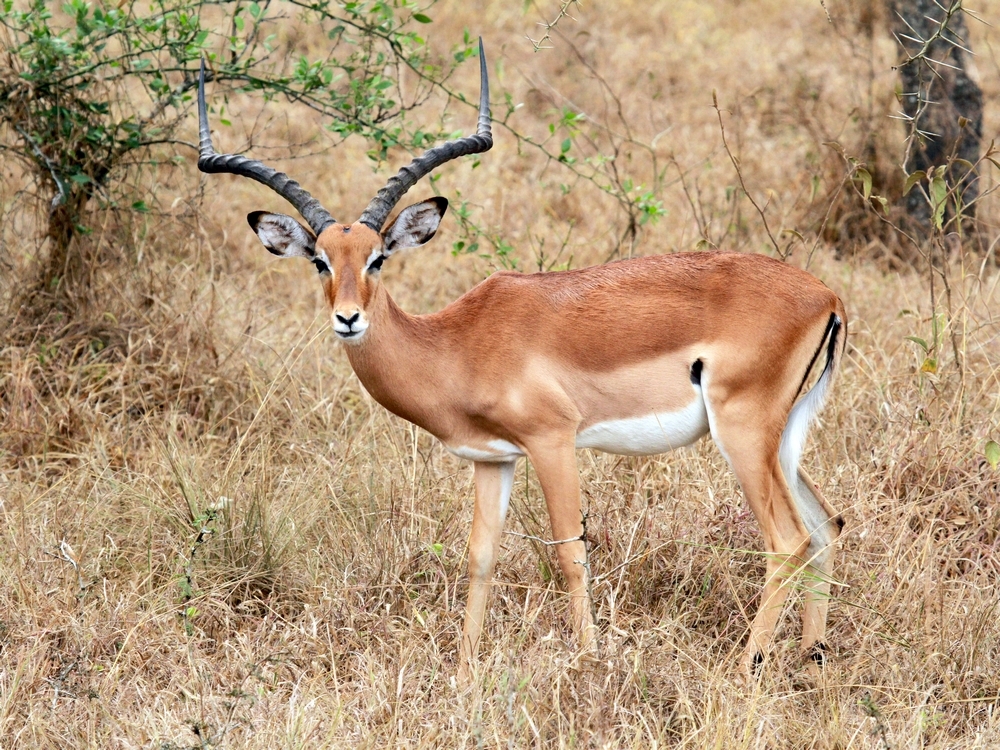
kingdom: Animalia
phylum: Chordata
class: Mammalia
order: Artiodactyla
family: Bovidae
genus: Aepyceros
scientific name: Aepyceros melampus
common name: Impala
